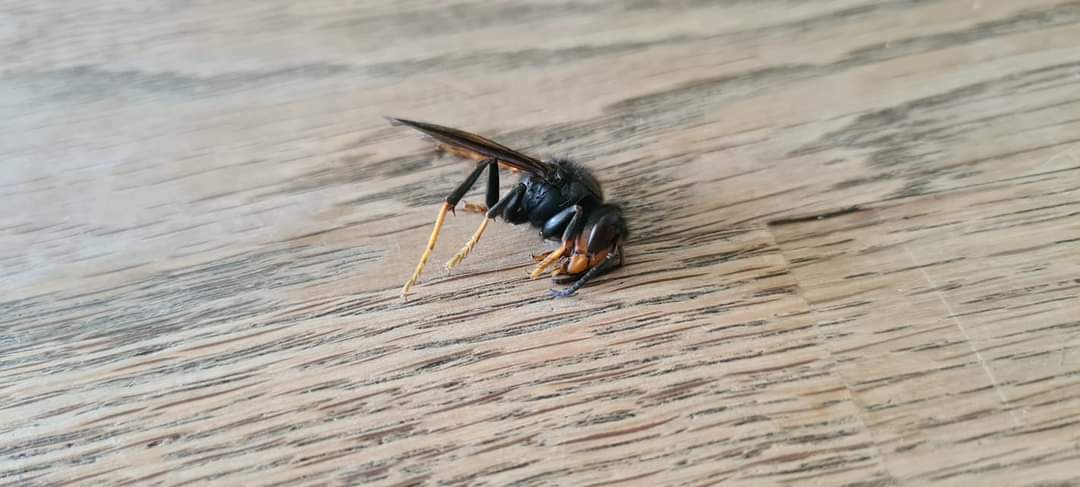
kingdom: Animalia
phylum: Arthropoda
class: Insecta
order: Hymenoptera
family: Vespidae
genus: Vespa
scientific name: Vespa velutina
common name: Asian hornet
